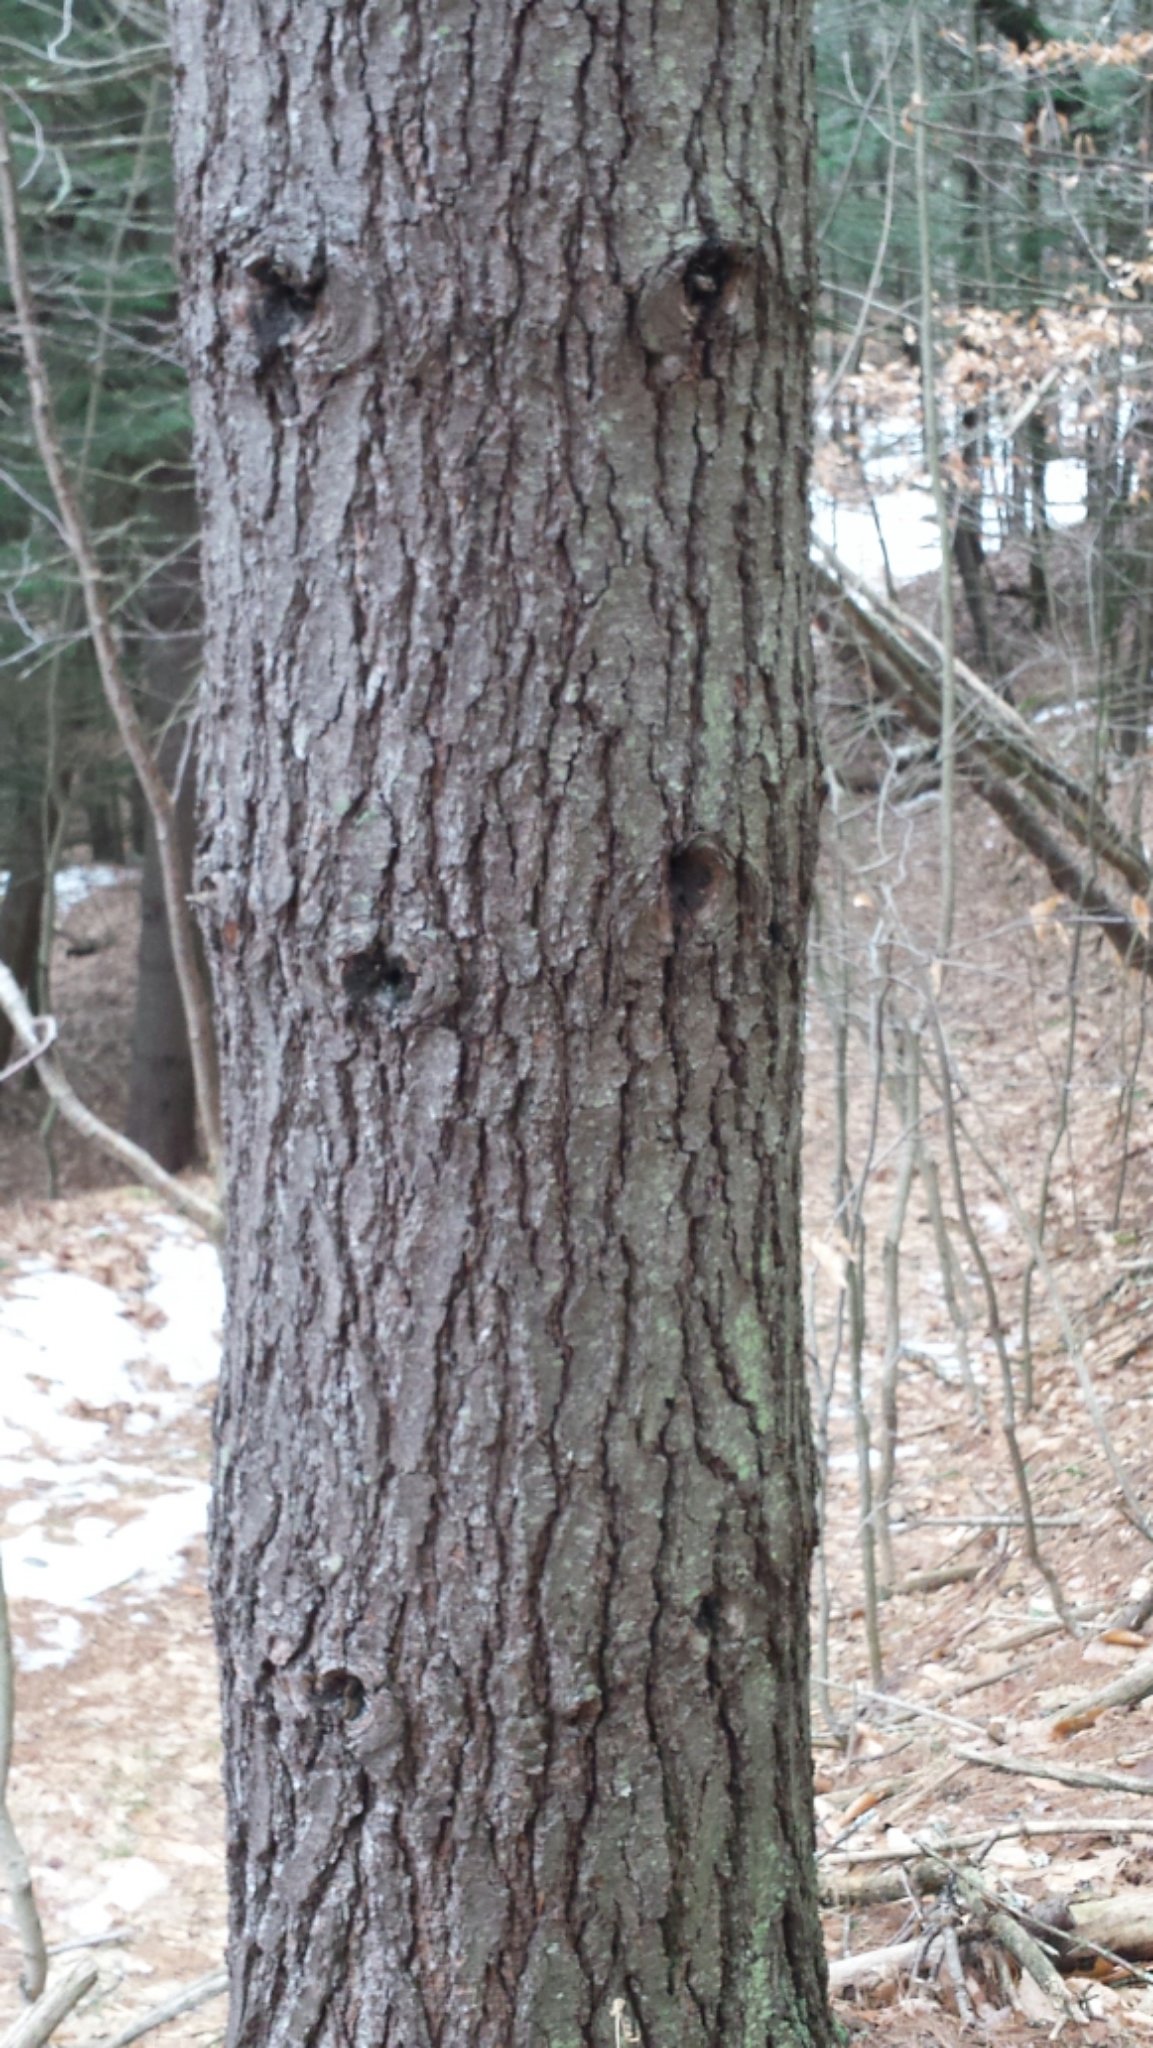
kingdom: Plantae
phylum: Tracheophyta
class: Pinopsida
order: Pinales
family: Pinaceae
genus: Pinus
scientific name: Pinus strobus
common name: Weymouth pine
